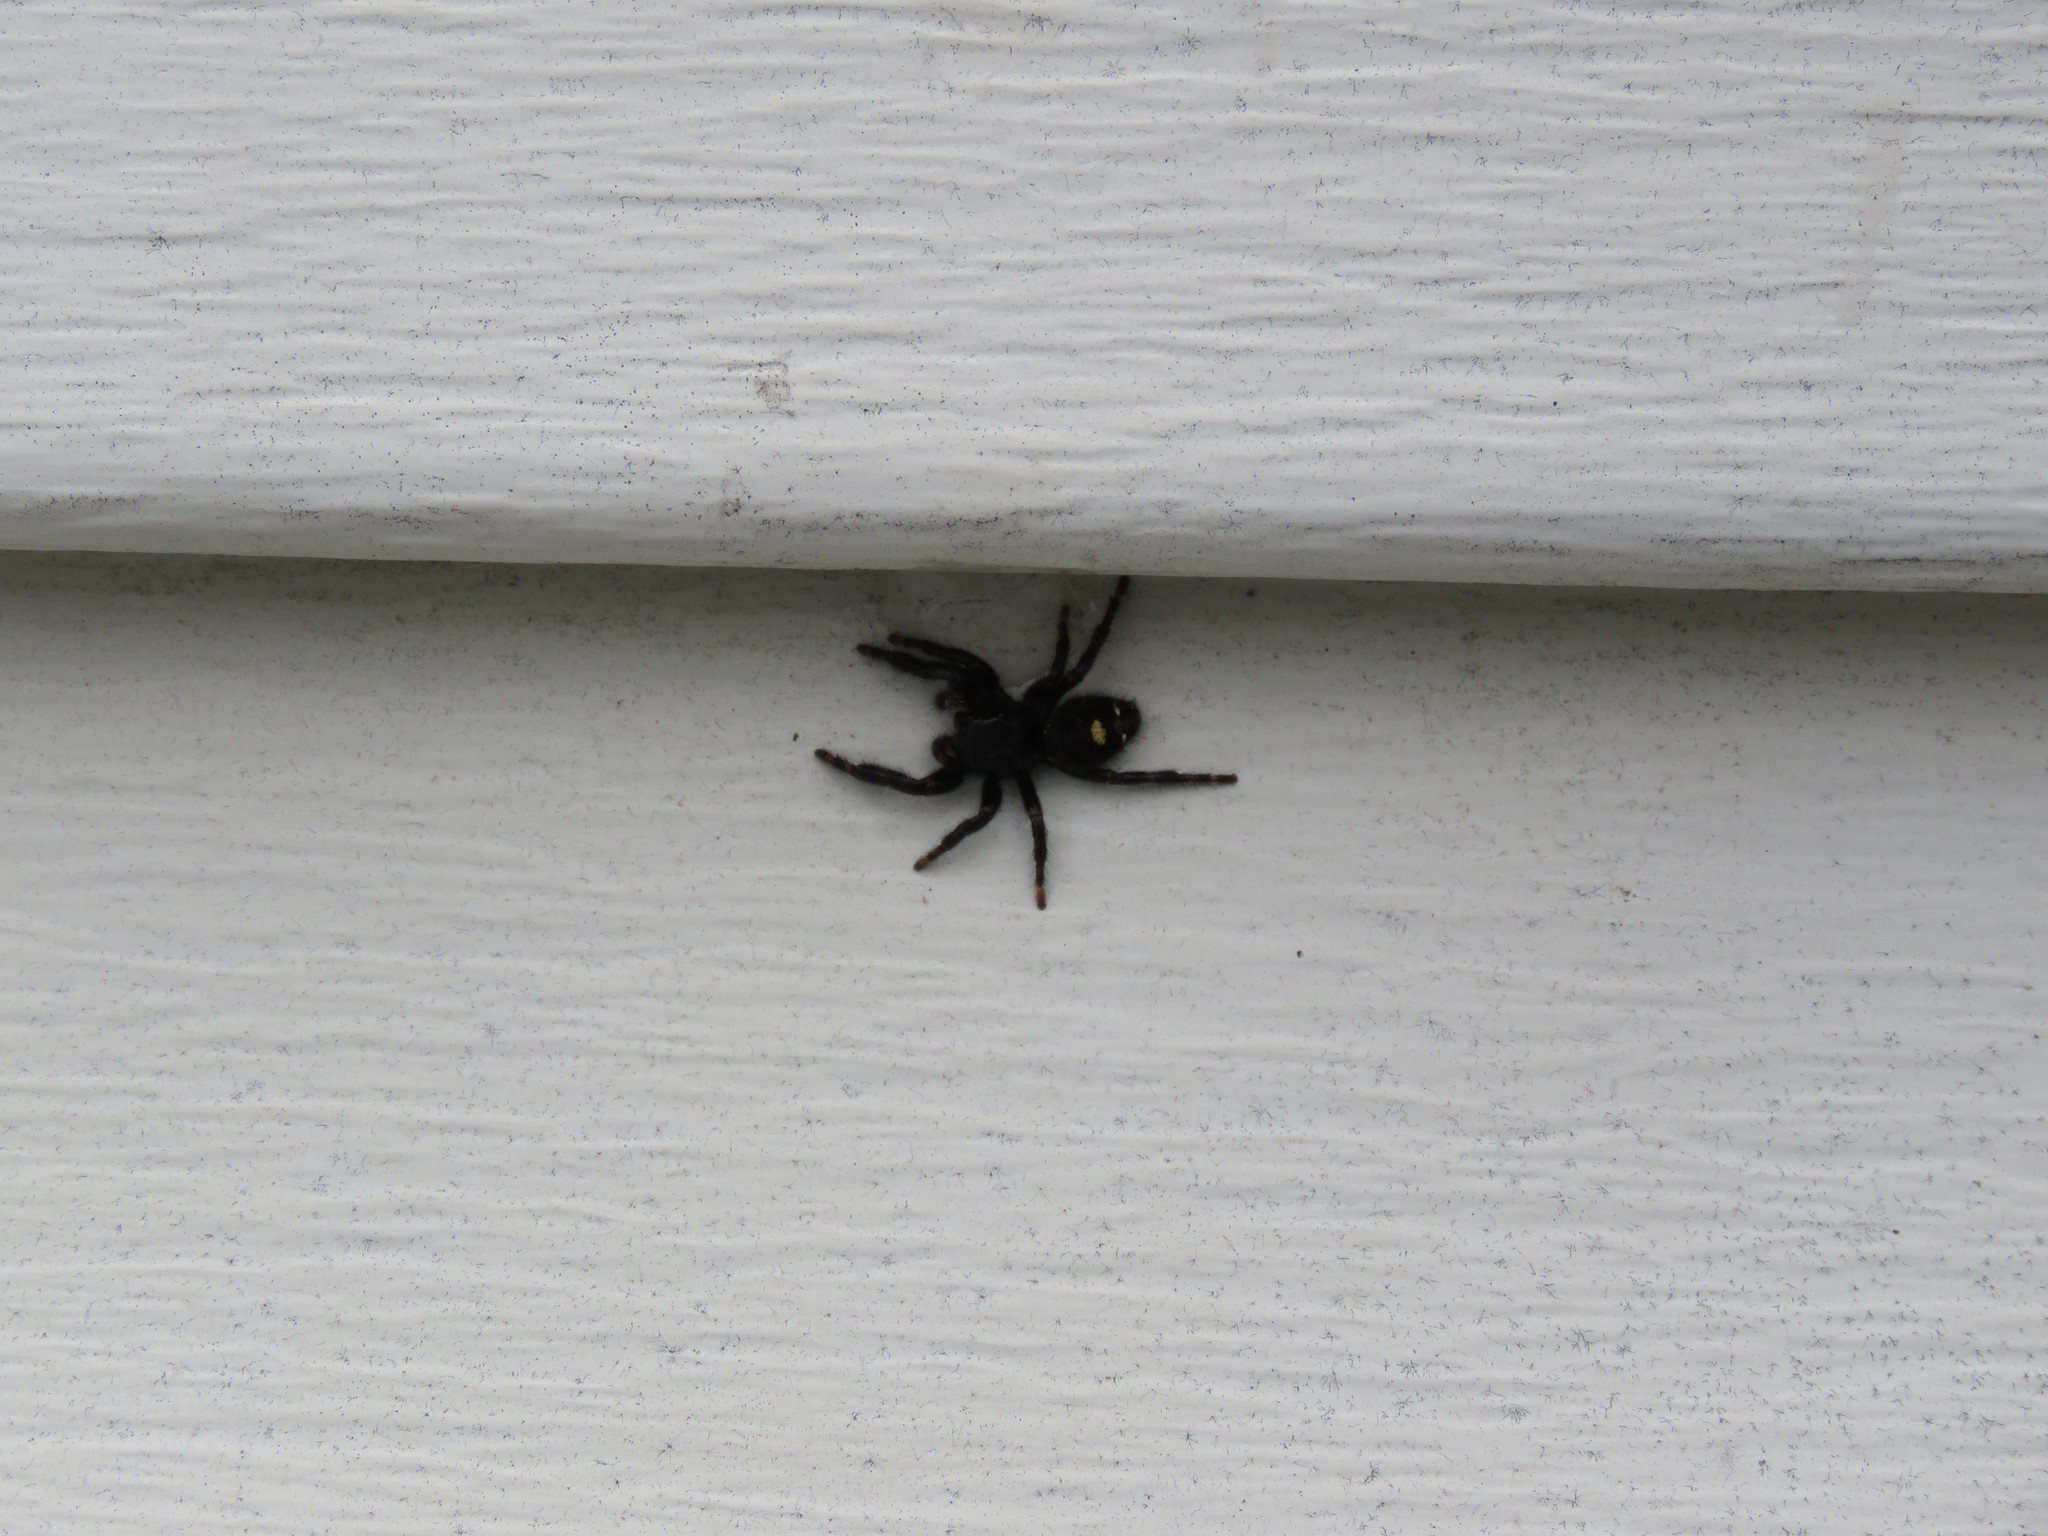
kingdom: Animalia
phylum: Arthropoda
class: Arachnida
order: Araneae
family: Salticidae
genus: Phidippus
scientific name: Phidippus audax
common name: Bold jumper
